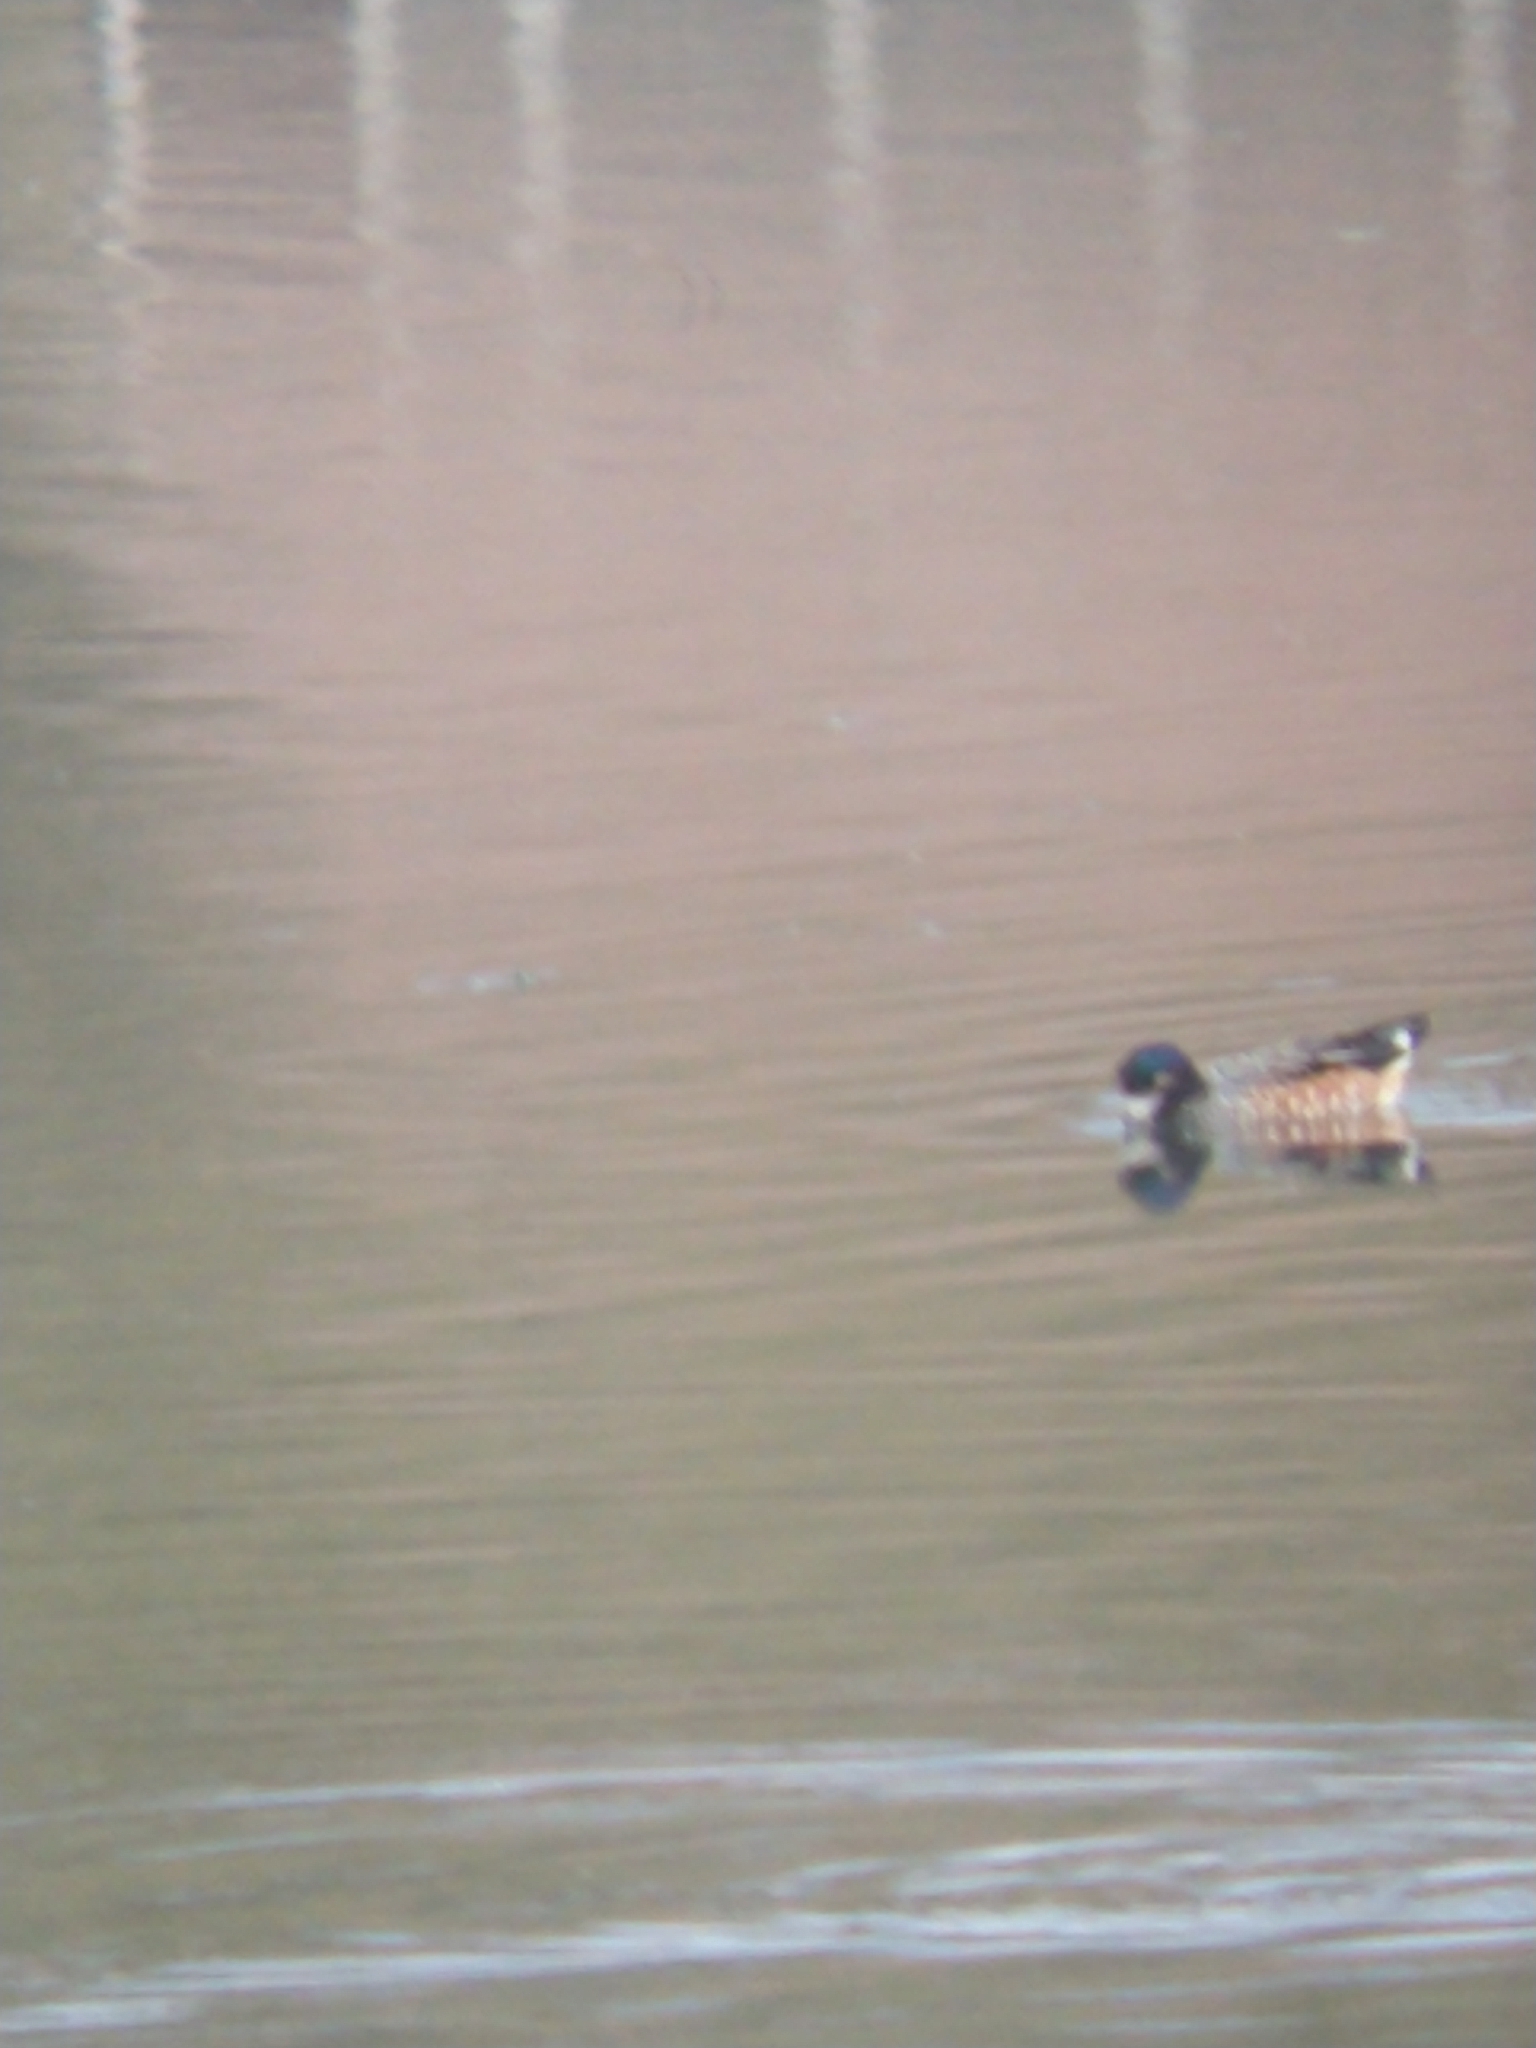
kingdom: Animalia
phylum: Chordata
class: Aves
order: Anseriformes
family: Anatidae
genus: Mareca
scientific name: Mareca sibilatrix
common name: Chiloe wigeon
